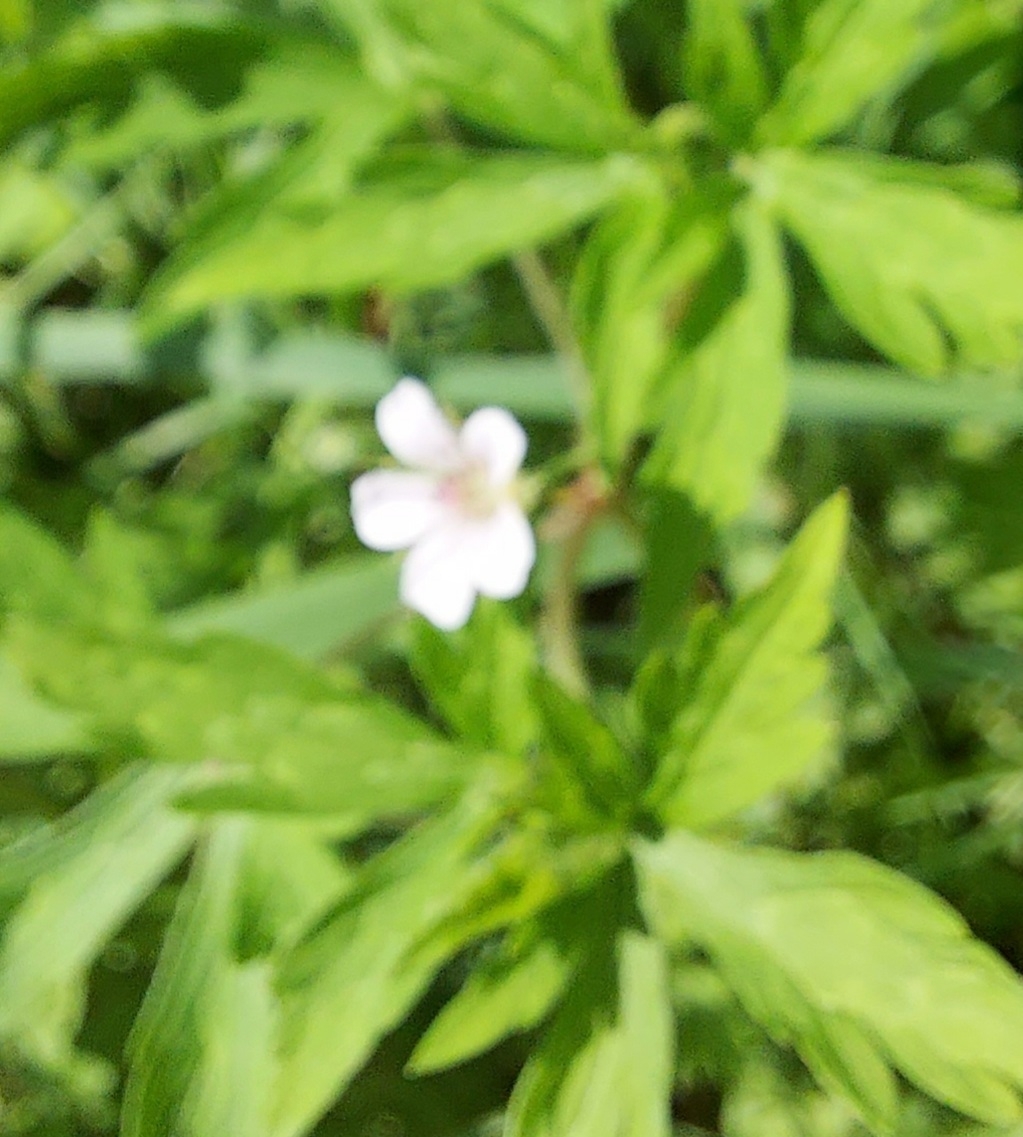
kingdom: Plantae
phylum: Tracheophyta
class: Magnoliopsida
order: Geraniales
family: Geraniaceae
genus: Geranium
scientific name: Geranium sibiricum
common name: Siberian crane's-bill
